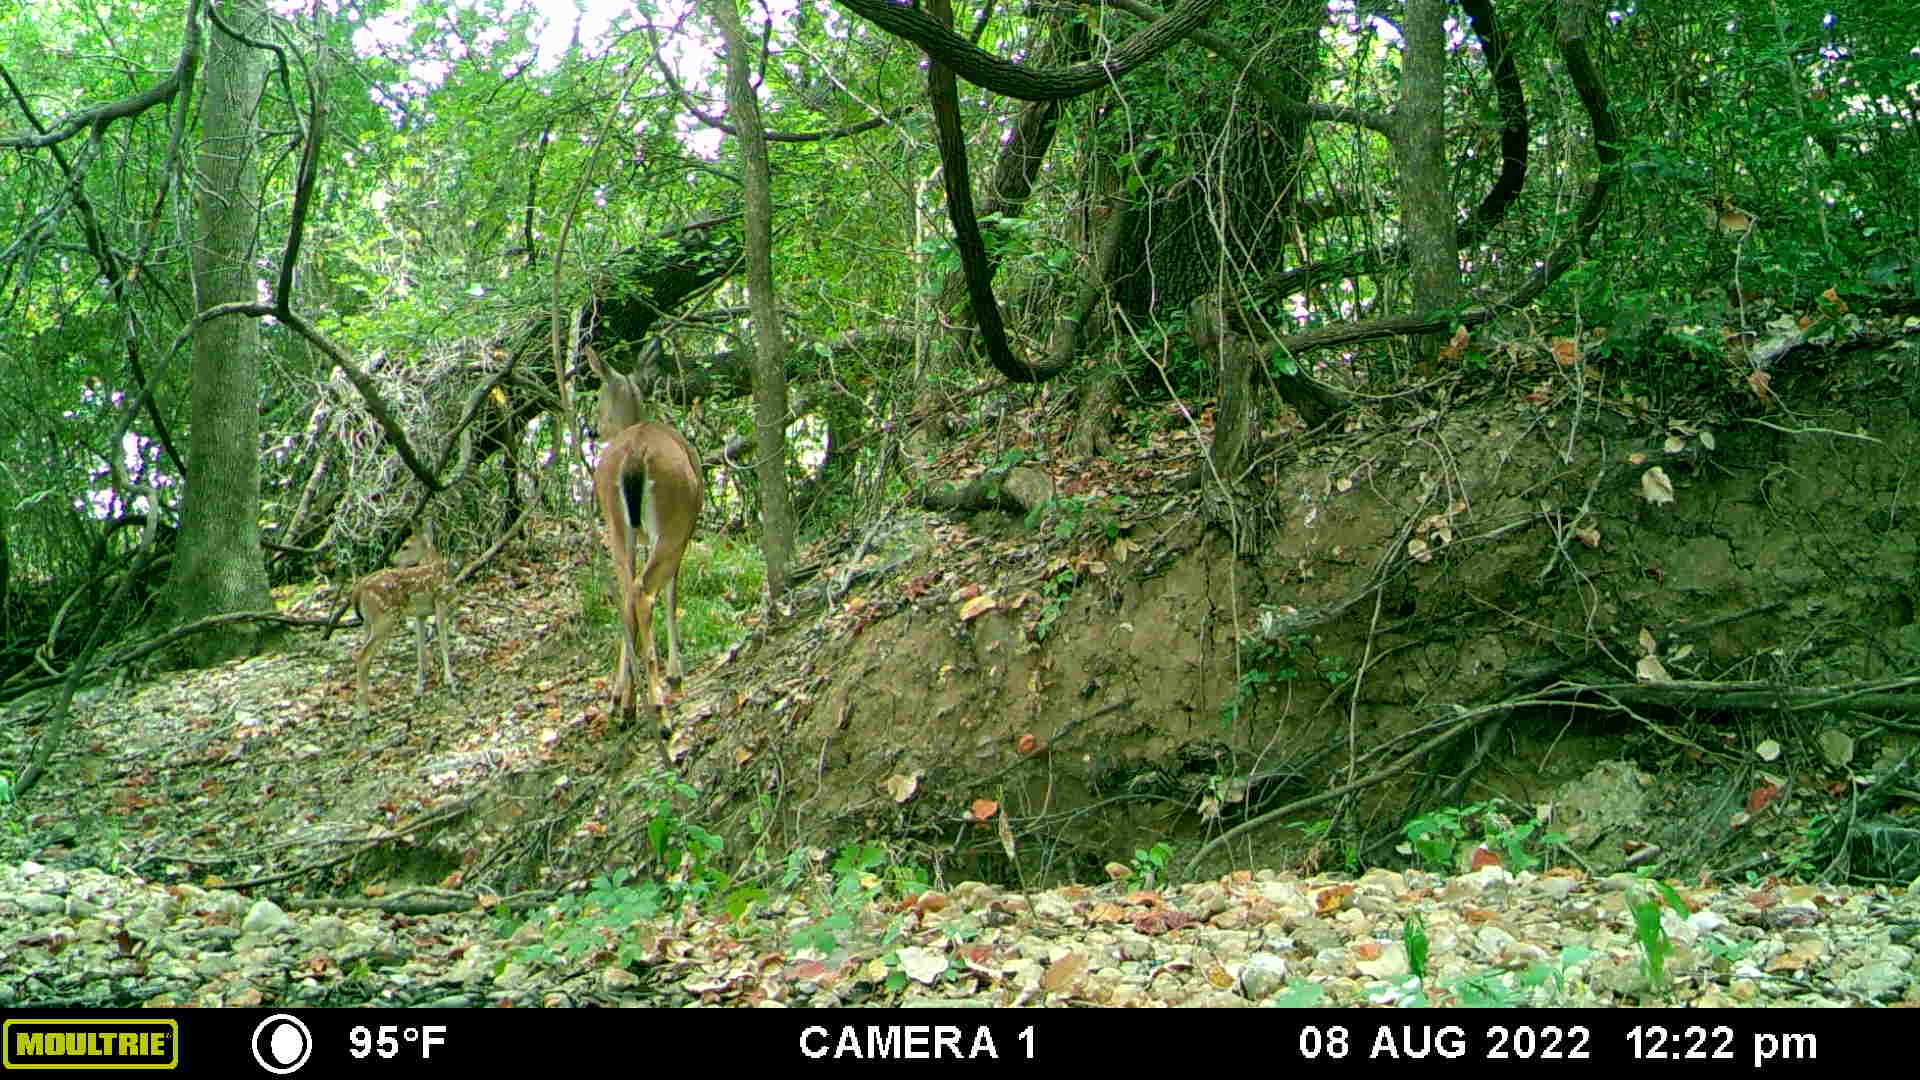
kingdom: Animalia
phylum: Chordata
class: Mammalia
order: Artiodactyla
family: Cervidae
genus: Odocoileus
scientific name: Odocoileus virginianus
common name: White-tailed deer
